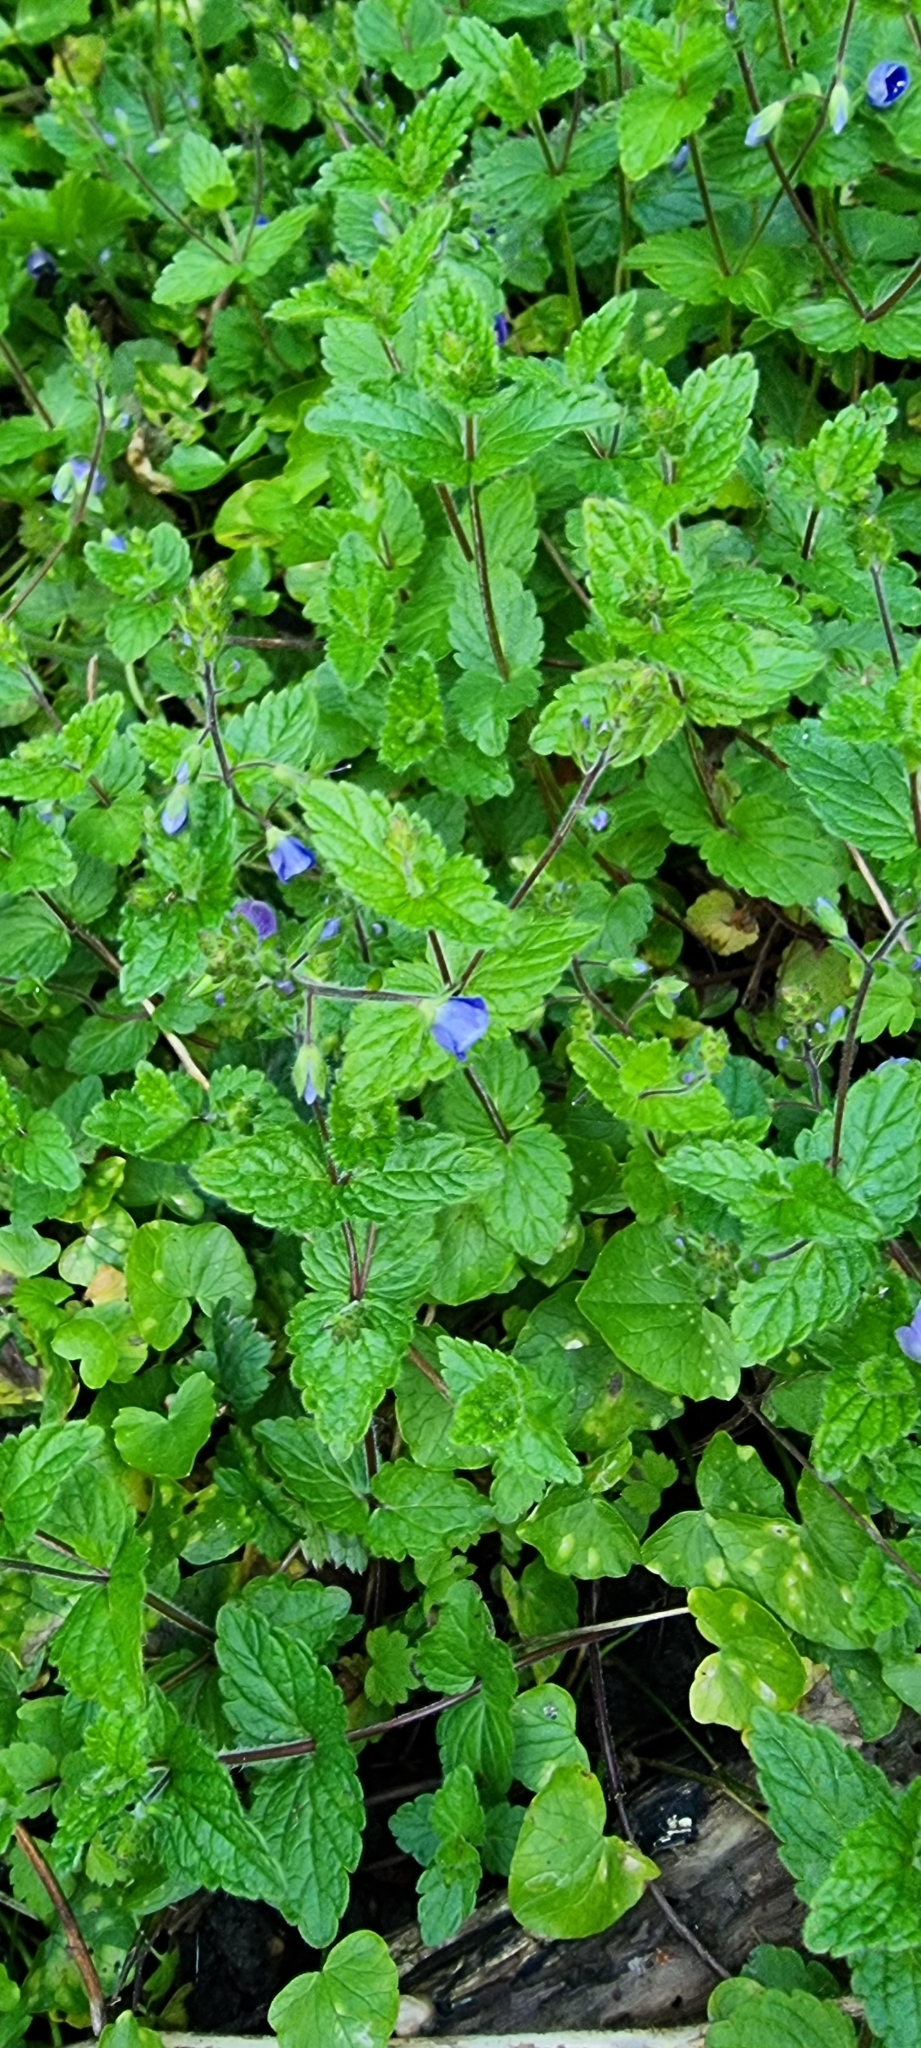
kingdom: Plantae
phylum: Tracheophyta
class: Magnoliopsida
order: Lamiales
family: Plantaginaceae
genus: Veronica
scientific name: Veronica chamaedrys
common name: Germander speedwell
